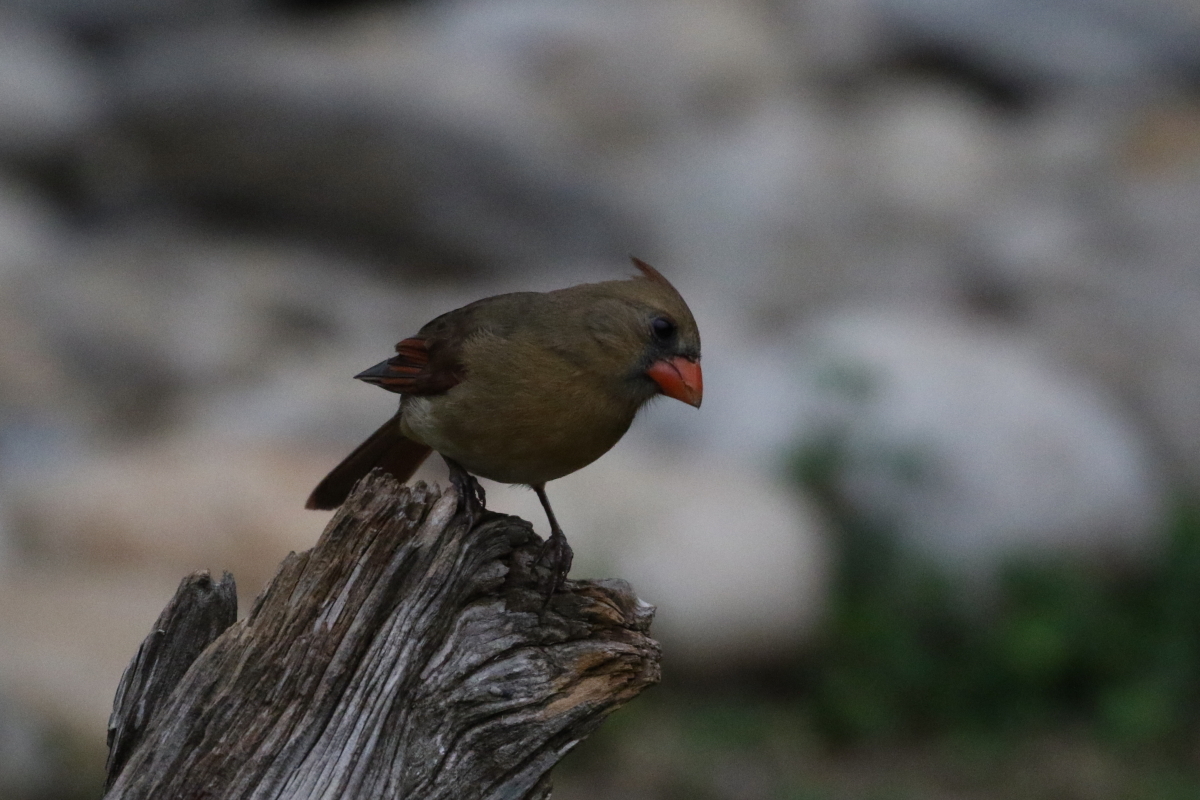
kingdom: Animalia
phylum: Chordata
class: Aves
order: Passeriformes
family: Cardinalidae
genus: Cardinalis
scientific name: Cardinalis cardinalis
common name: Northern cardinal
